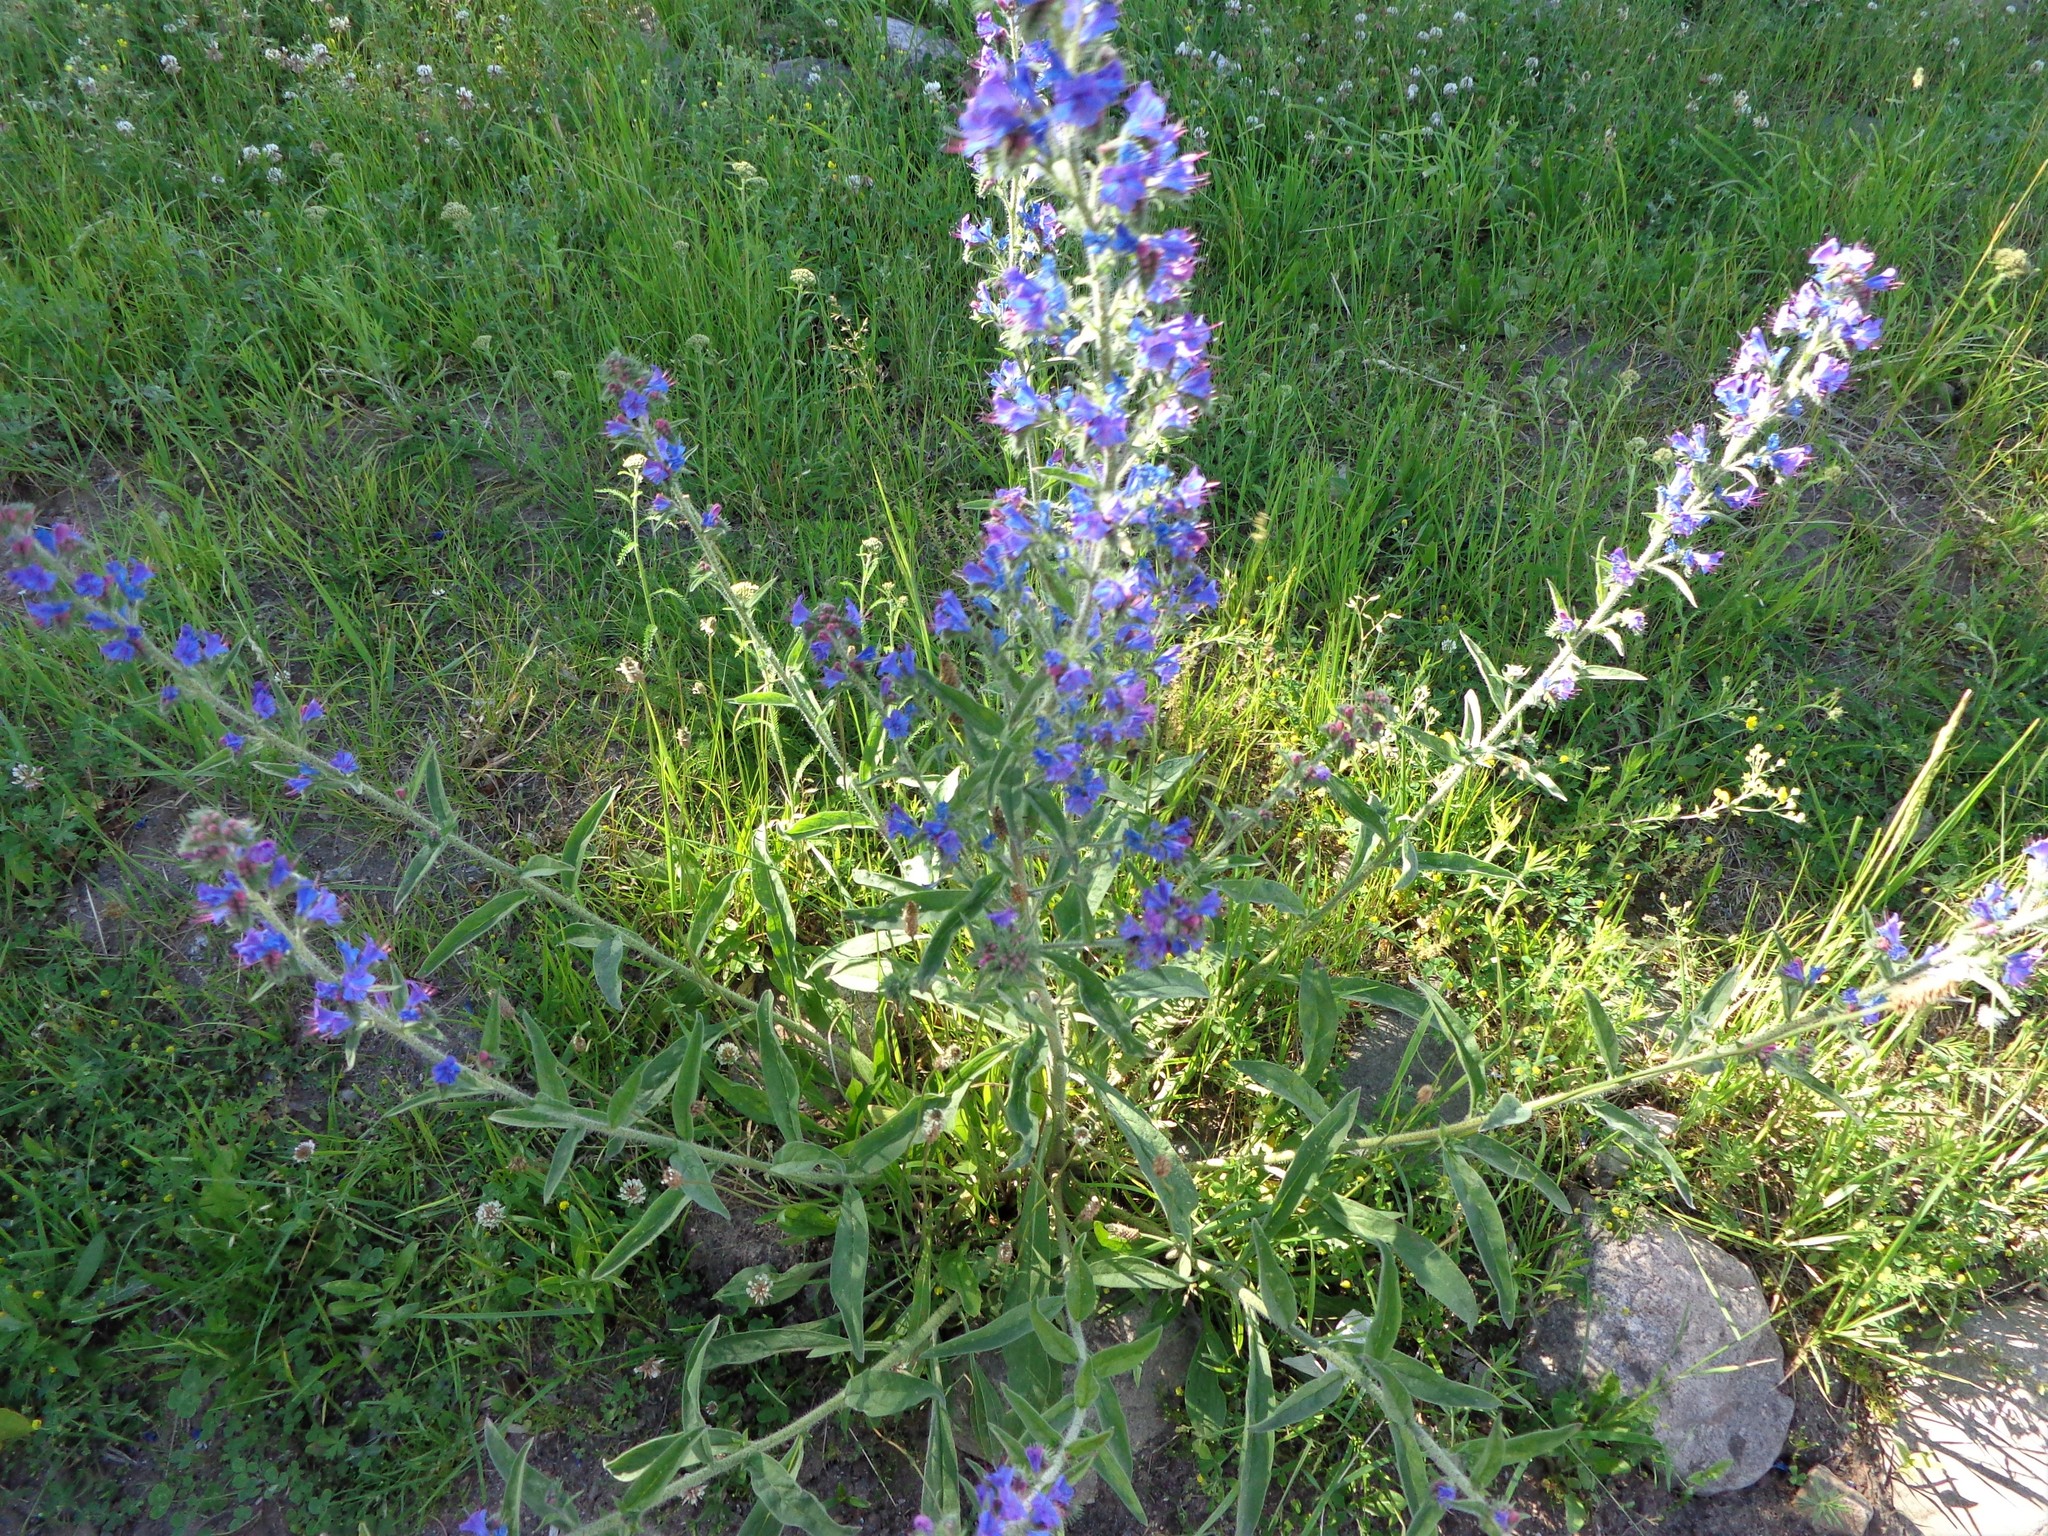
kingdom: Plantae
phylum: Tracheophyta
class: Magnoliopsida
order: Boraginales
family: Boraginaceae
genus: Echium
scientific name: Echium vulgare
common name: Common viper's bugloss
